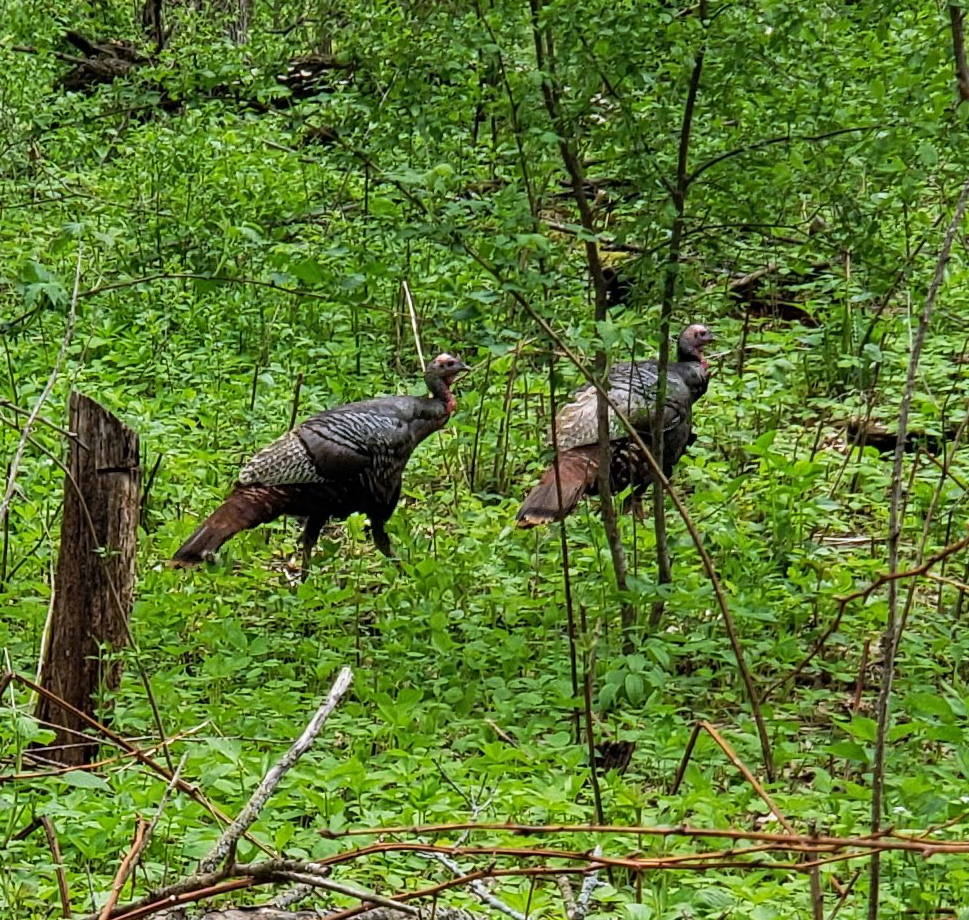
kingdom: Animalia
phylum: Chordata
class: Aves
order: Galliformes
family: Phasianidae
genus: Meleagris
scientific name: Meleagris gallopavo
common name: Wild turkey
